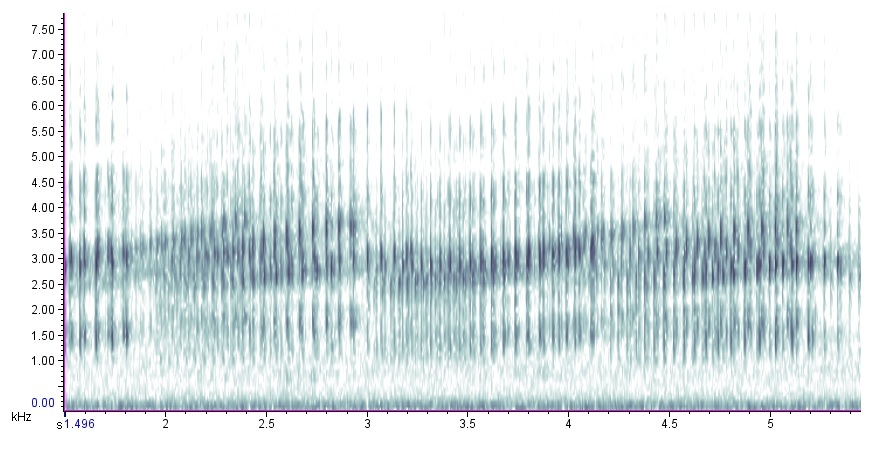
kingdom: Animalia
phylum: Chordata
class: Amphibia
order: Anura
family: Hylidae
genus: Pseudacris
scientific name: Pseudacris feriarum
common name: Upland chorus frog
